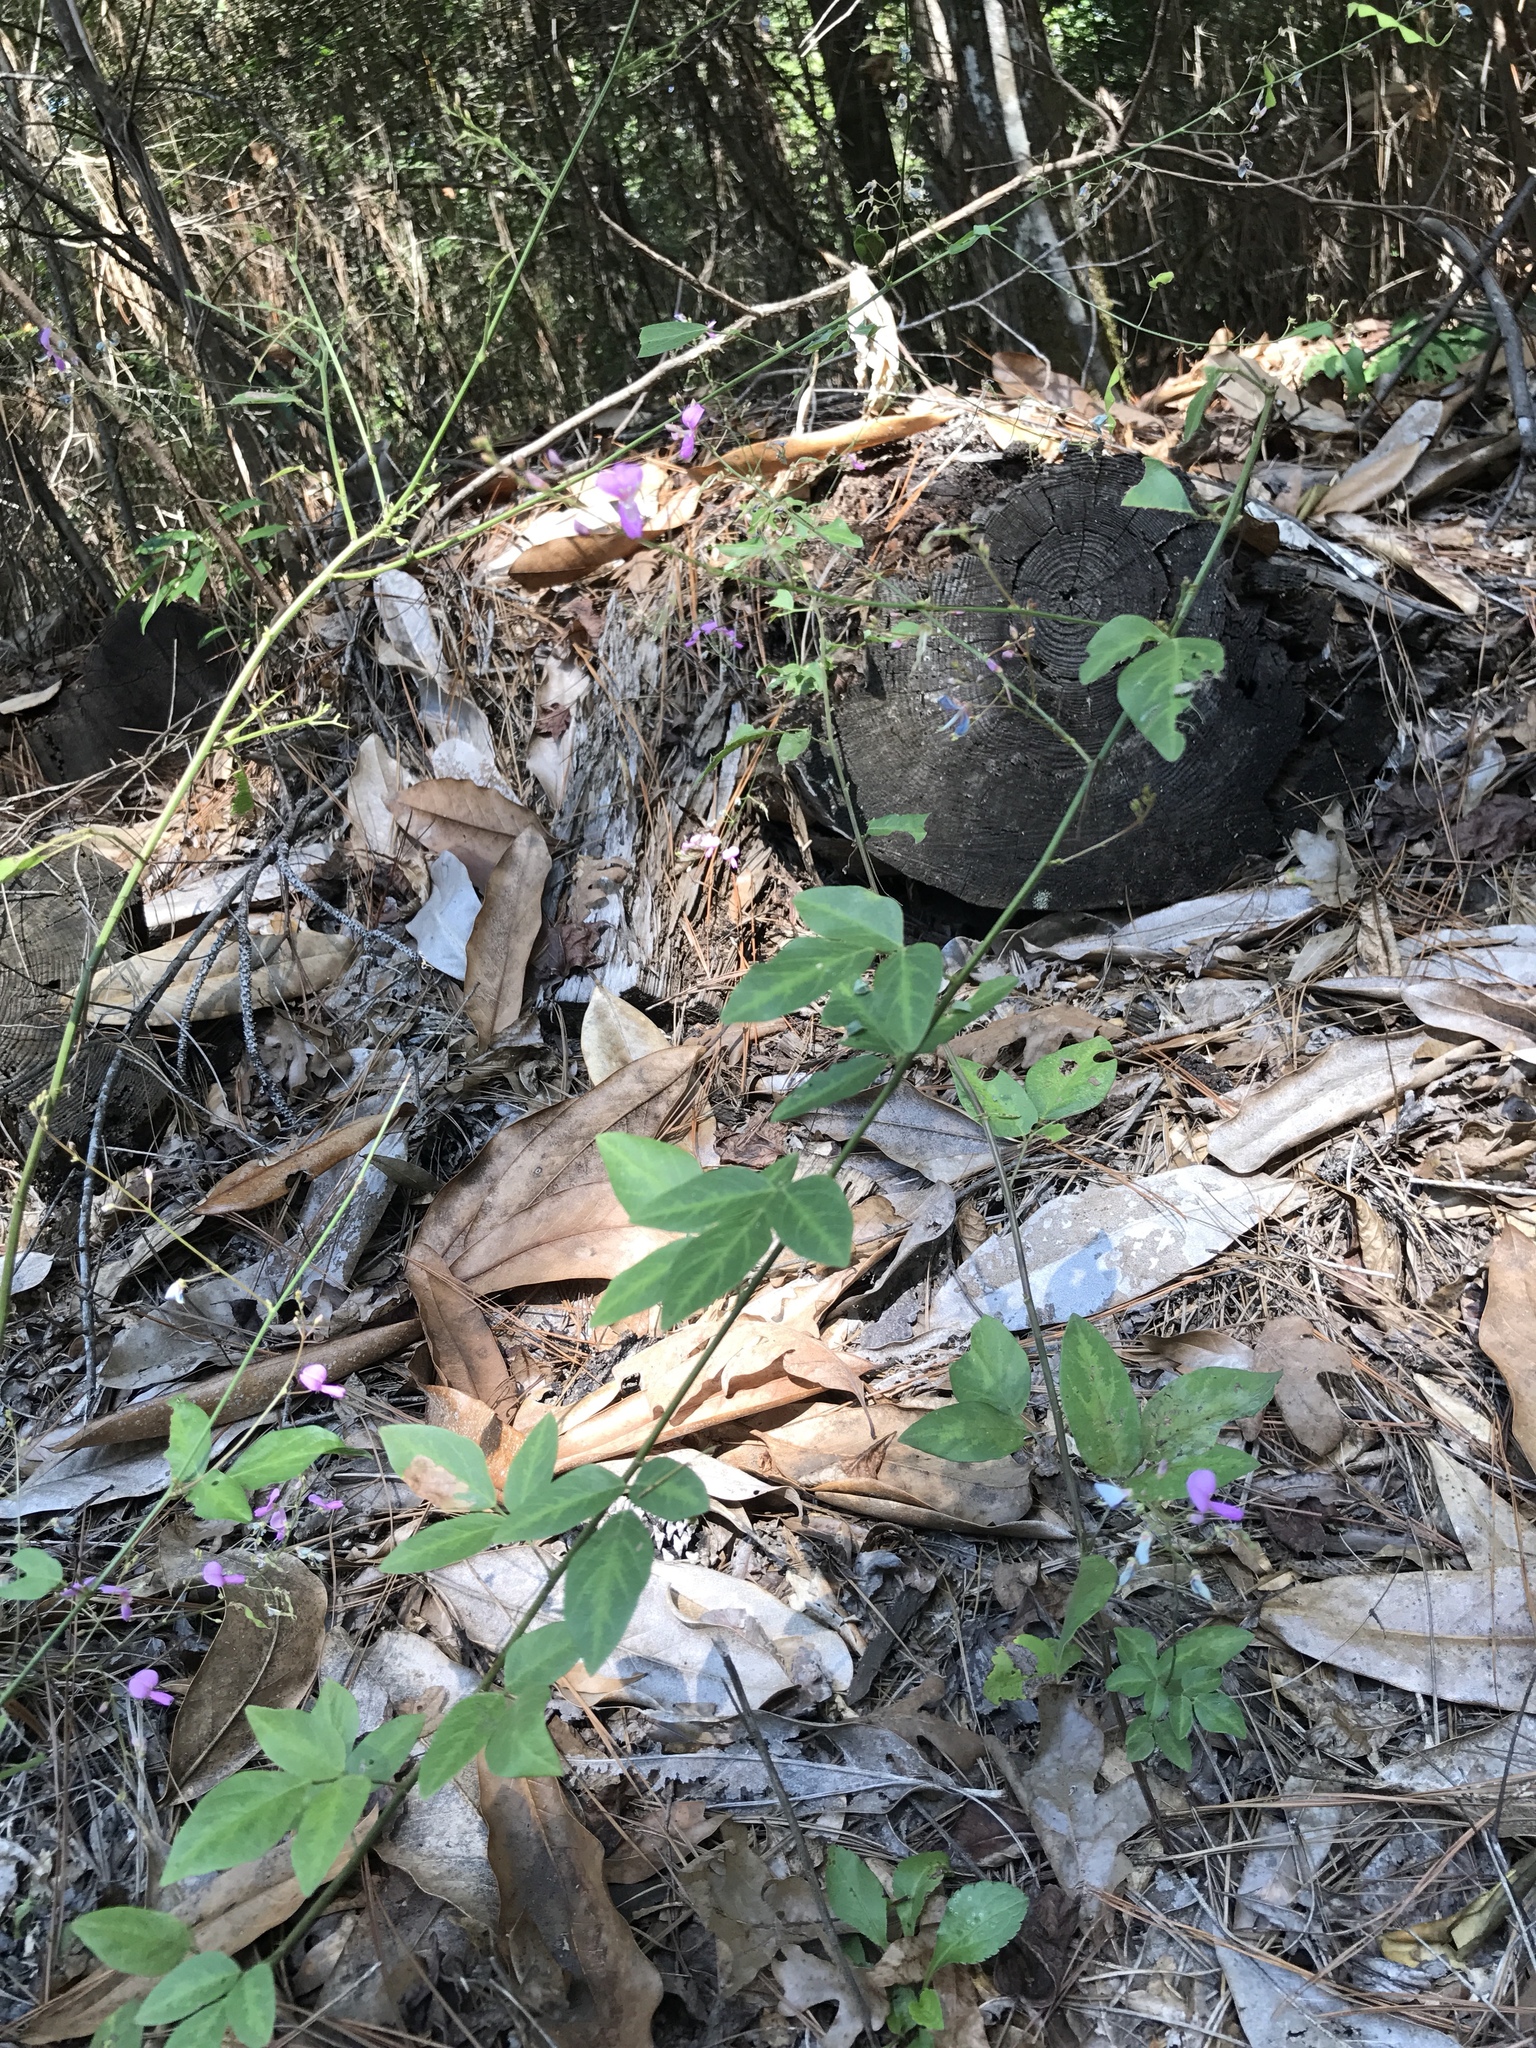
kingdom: Plantae
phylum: Tracheophyta
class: Magnoliopsida
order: Fabales
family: Fabaceae
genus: Desmodium
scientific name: Desmodium paniculatum
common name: Panicled tick-clover
